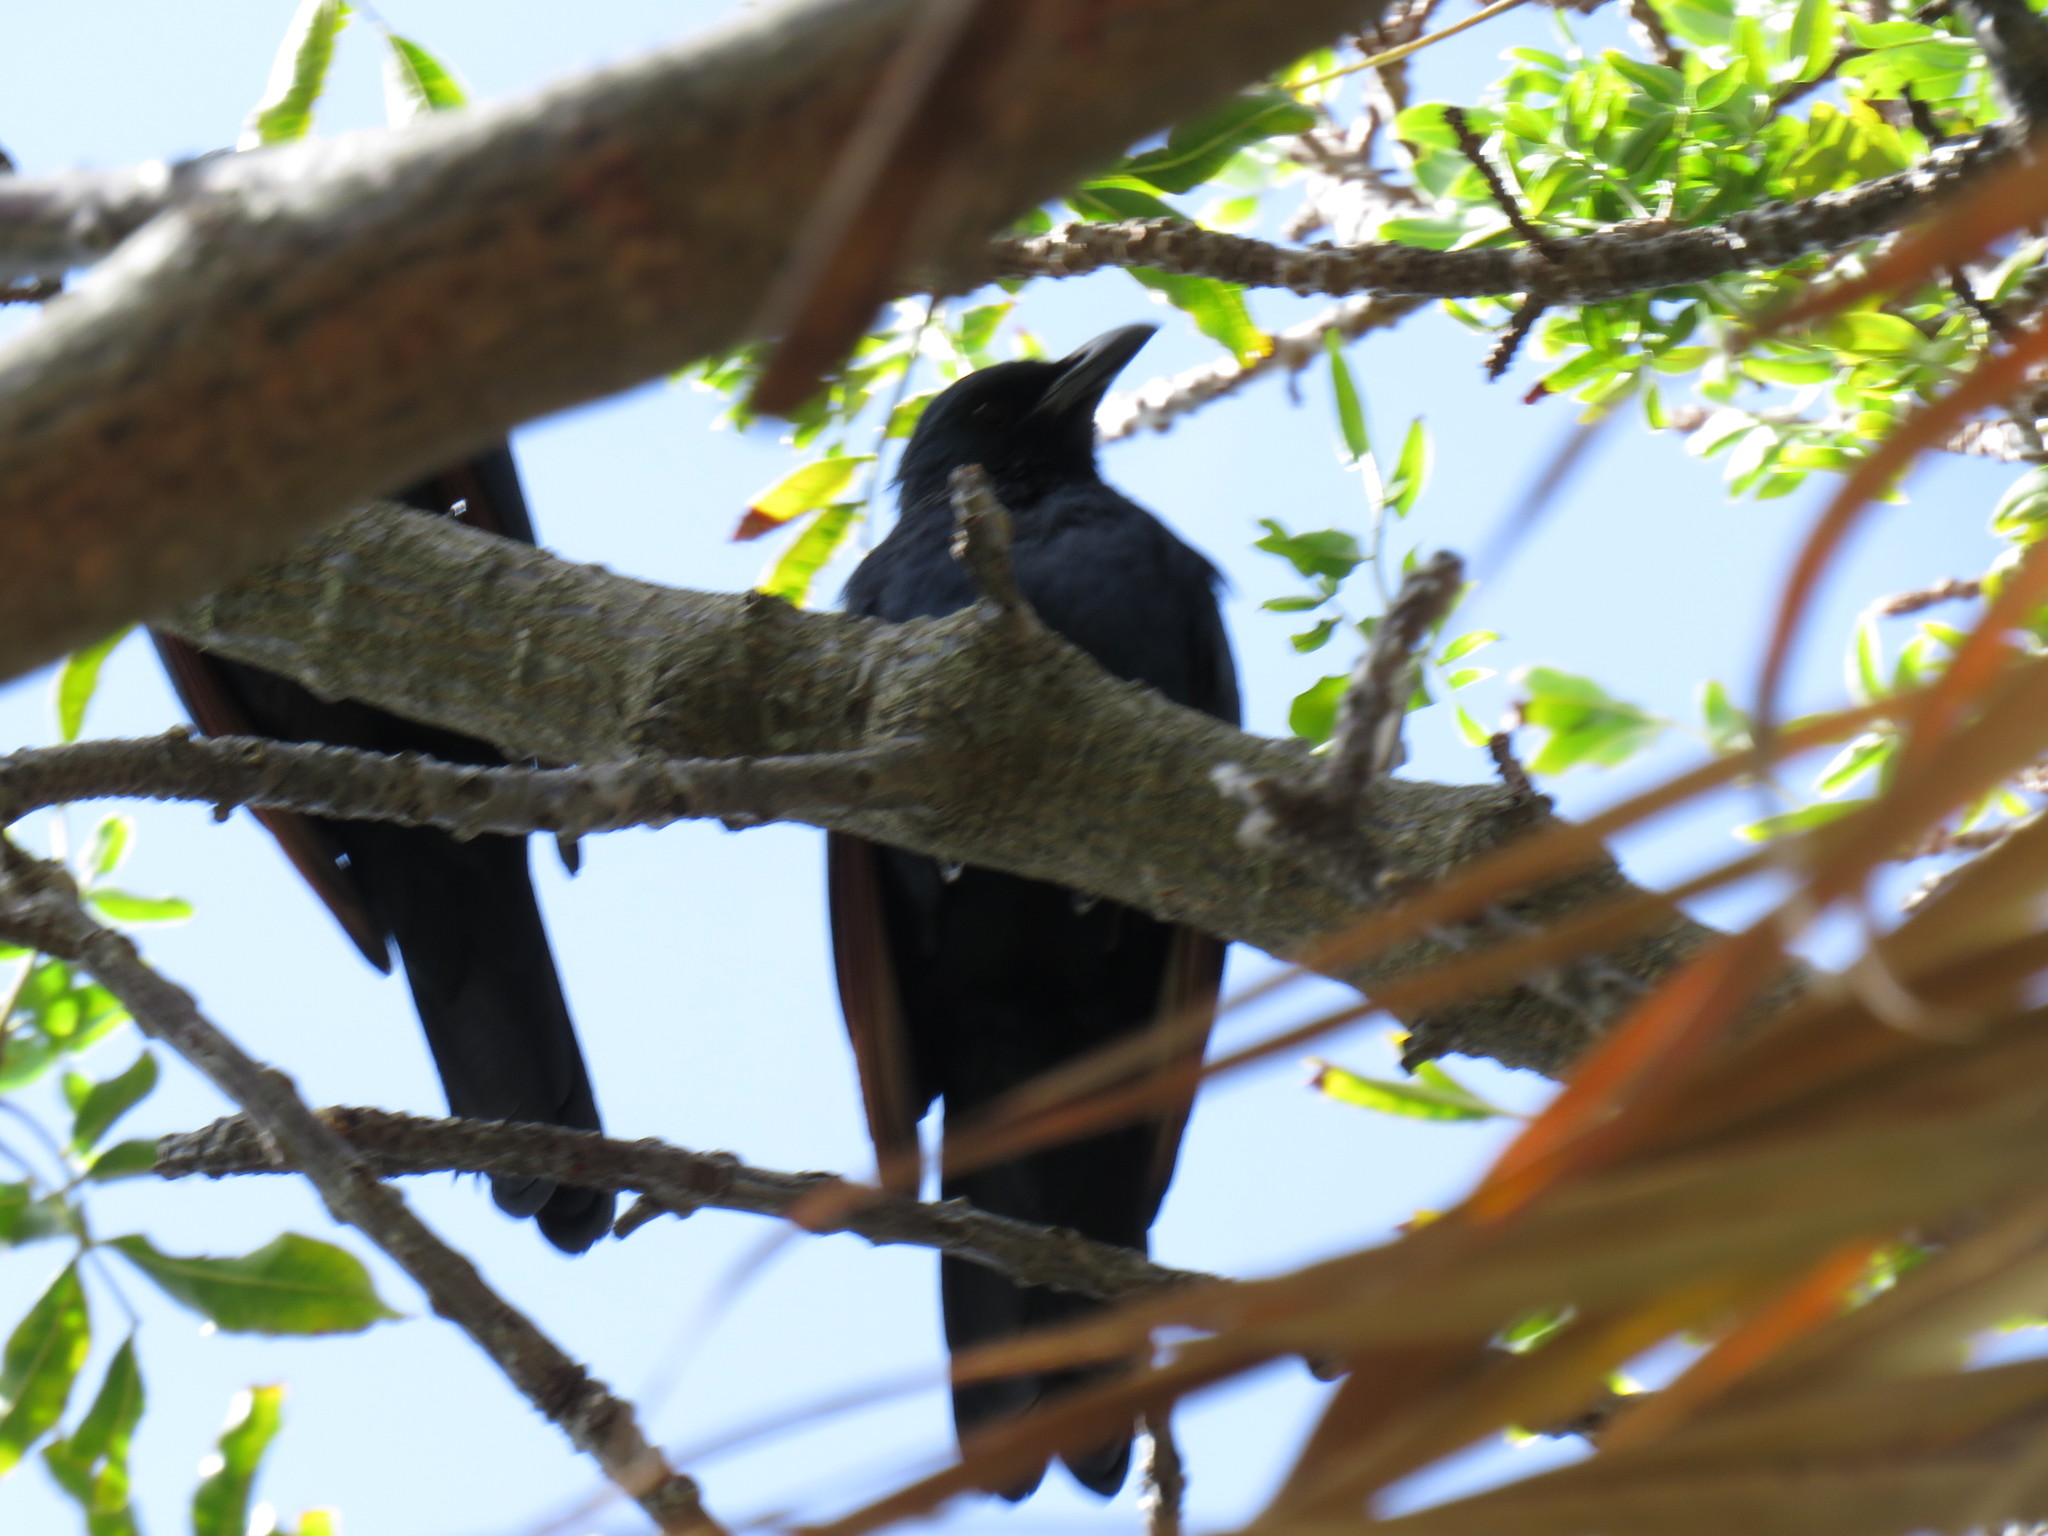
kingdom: Animalia
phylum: Chordata
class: Aves
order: Passeriformes
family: Sturnidae
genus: Onychognathus
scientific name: Onychognathus morio
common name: Red-winged starling
